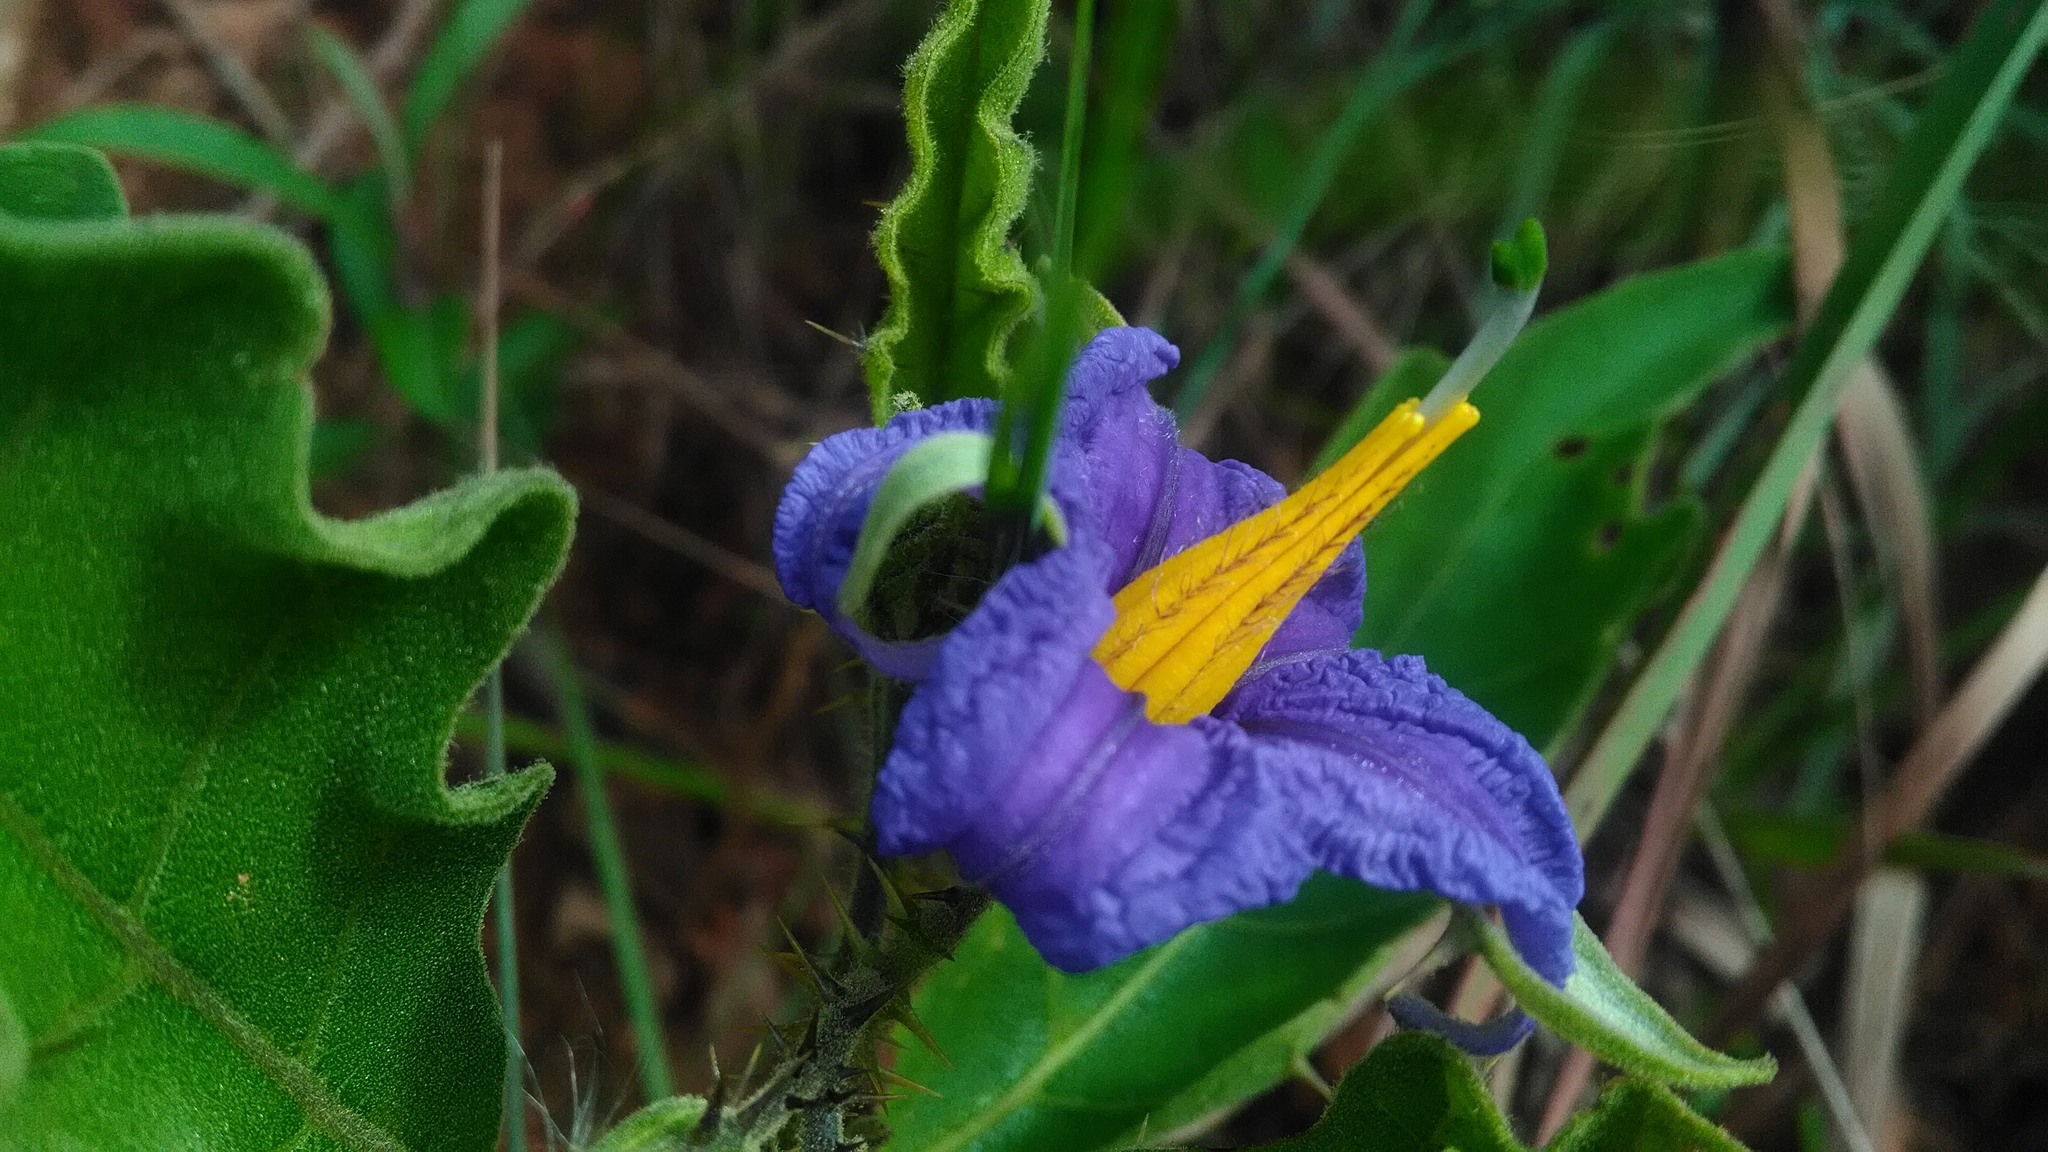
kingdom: Plantae
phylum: Tracheophyta
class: Magnoliopsida
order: Solanales
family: Solanaceae
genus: Solanum
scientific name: Solanum medusae
